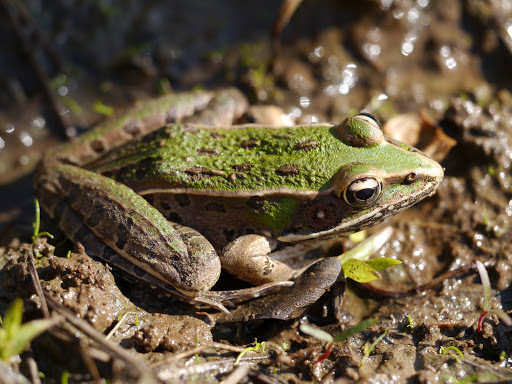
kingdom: Animalia
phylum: Chordata
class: Amphibia
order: Anura
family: Ranidae
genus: Lithobates
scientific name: Lithobates sphenocephalus
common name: Southern leopard frog
